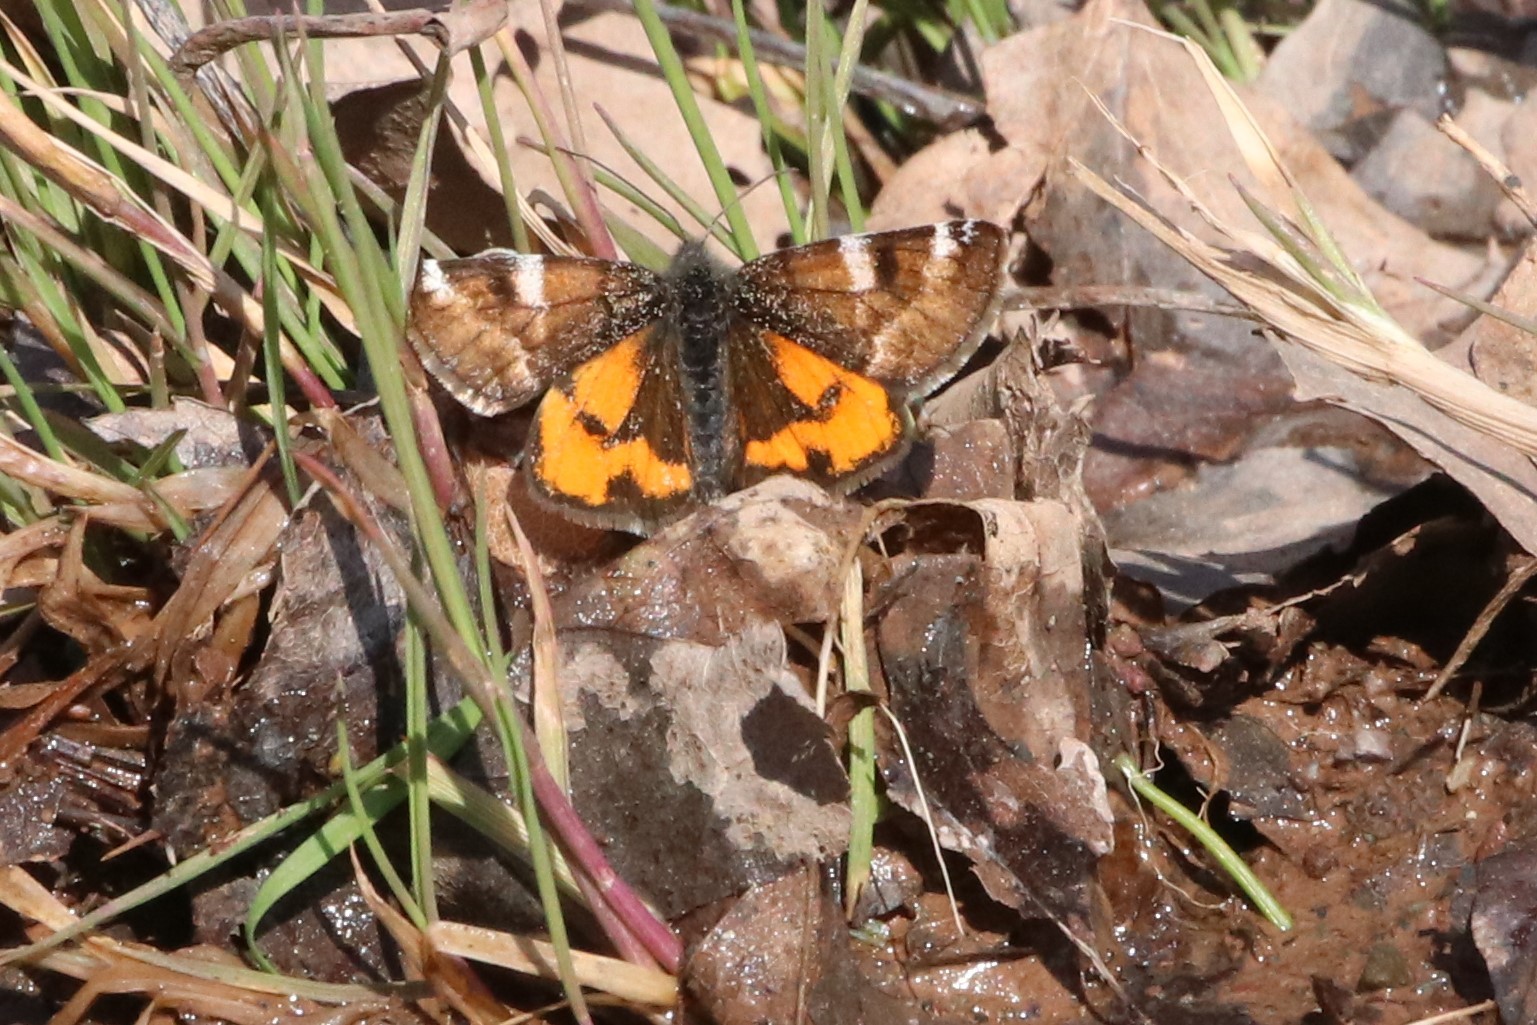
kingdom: Animalia
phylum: Arthropoda
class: Insecta
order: Lepidoptera
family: Geometridae
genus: Archiearis
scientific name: Archiearis infans
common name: First born geometer
